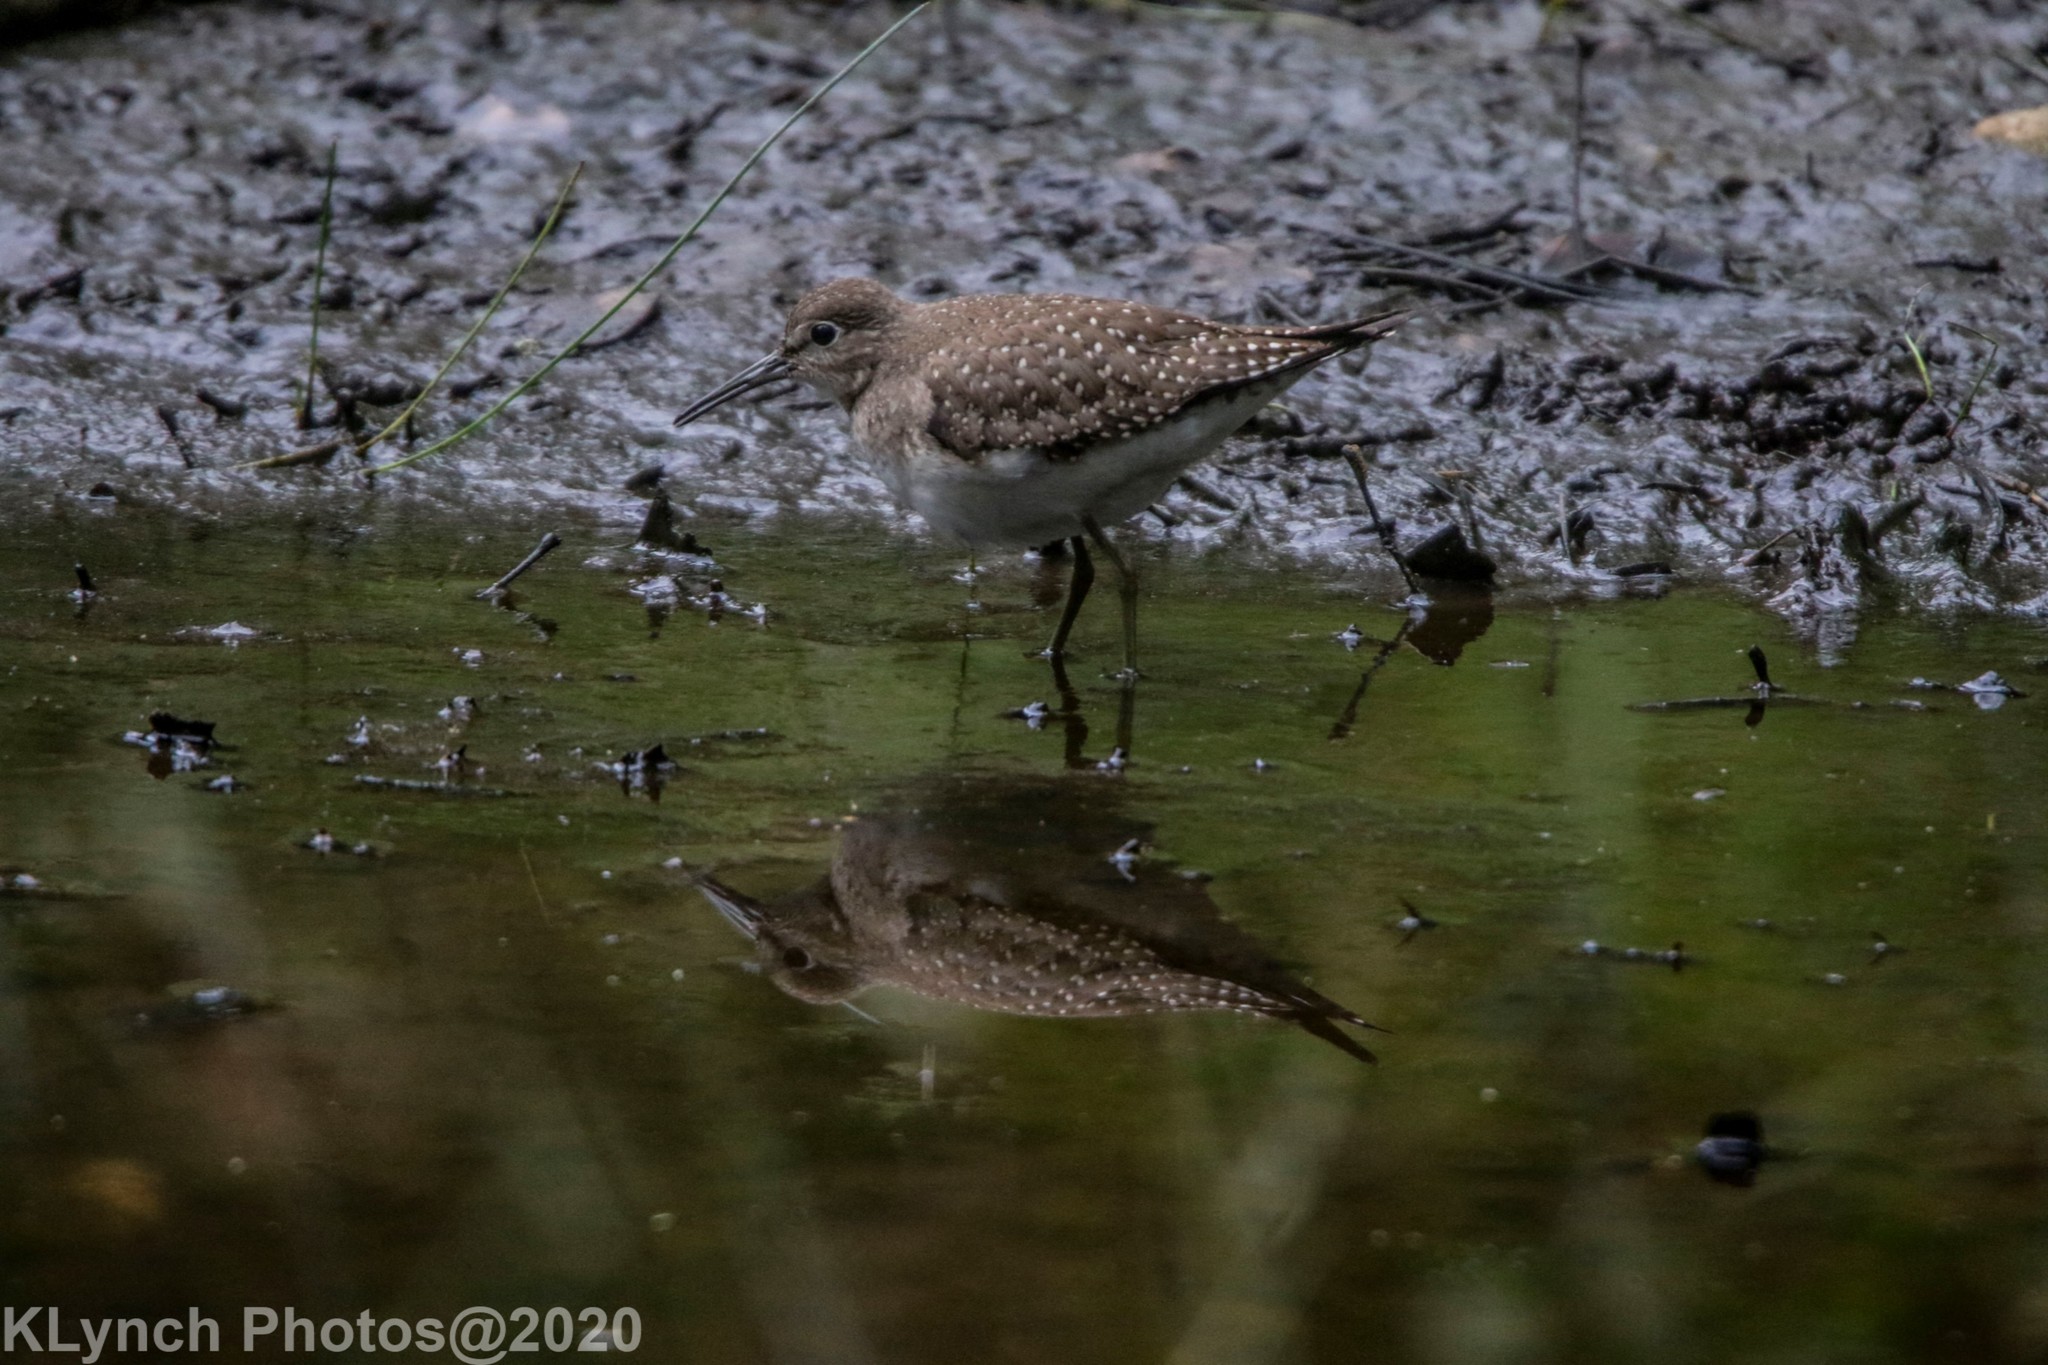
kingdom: Animalia
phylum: Chordata
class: Aves
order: Charadriiformes
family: Scolopacidae
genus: Tringa
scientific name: Tringa solitaria
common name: Solitary sandpiper
